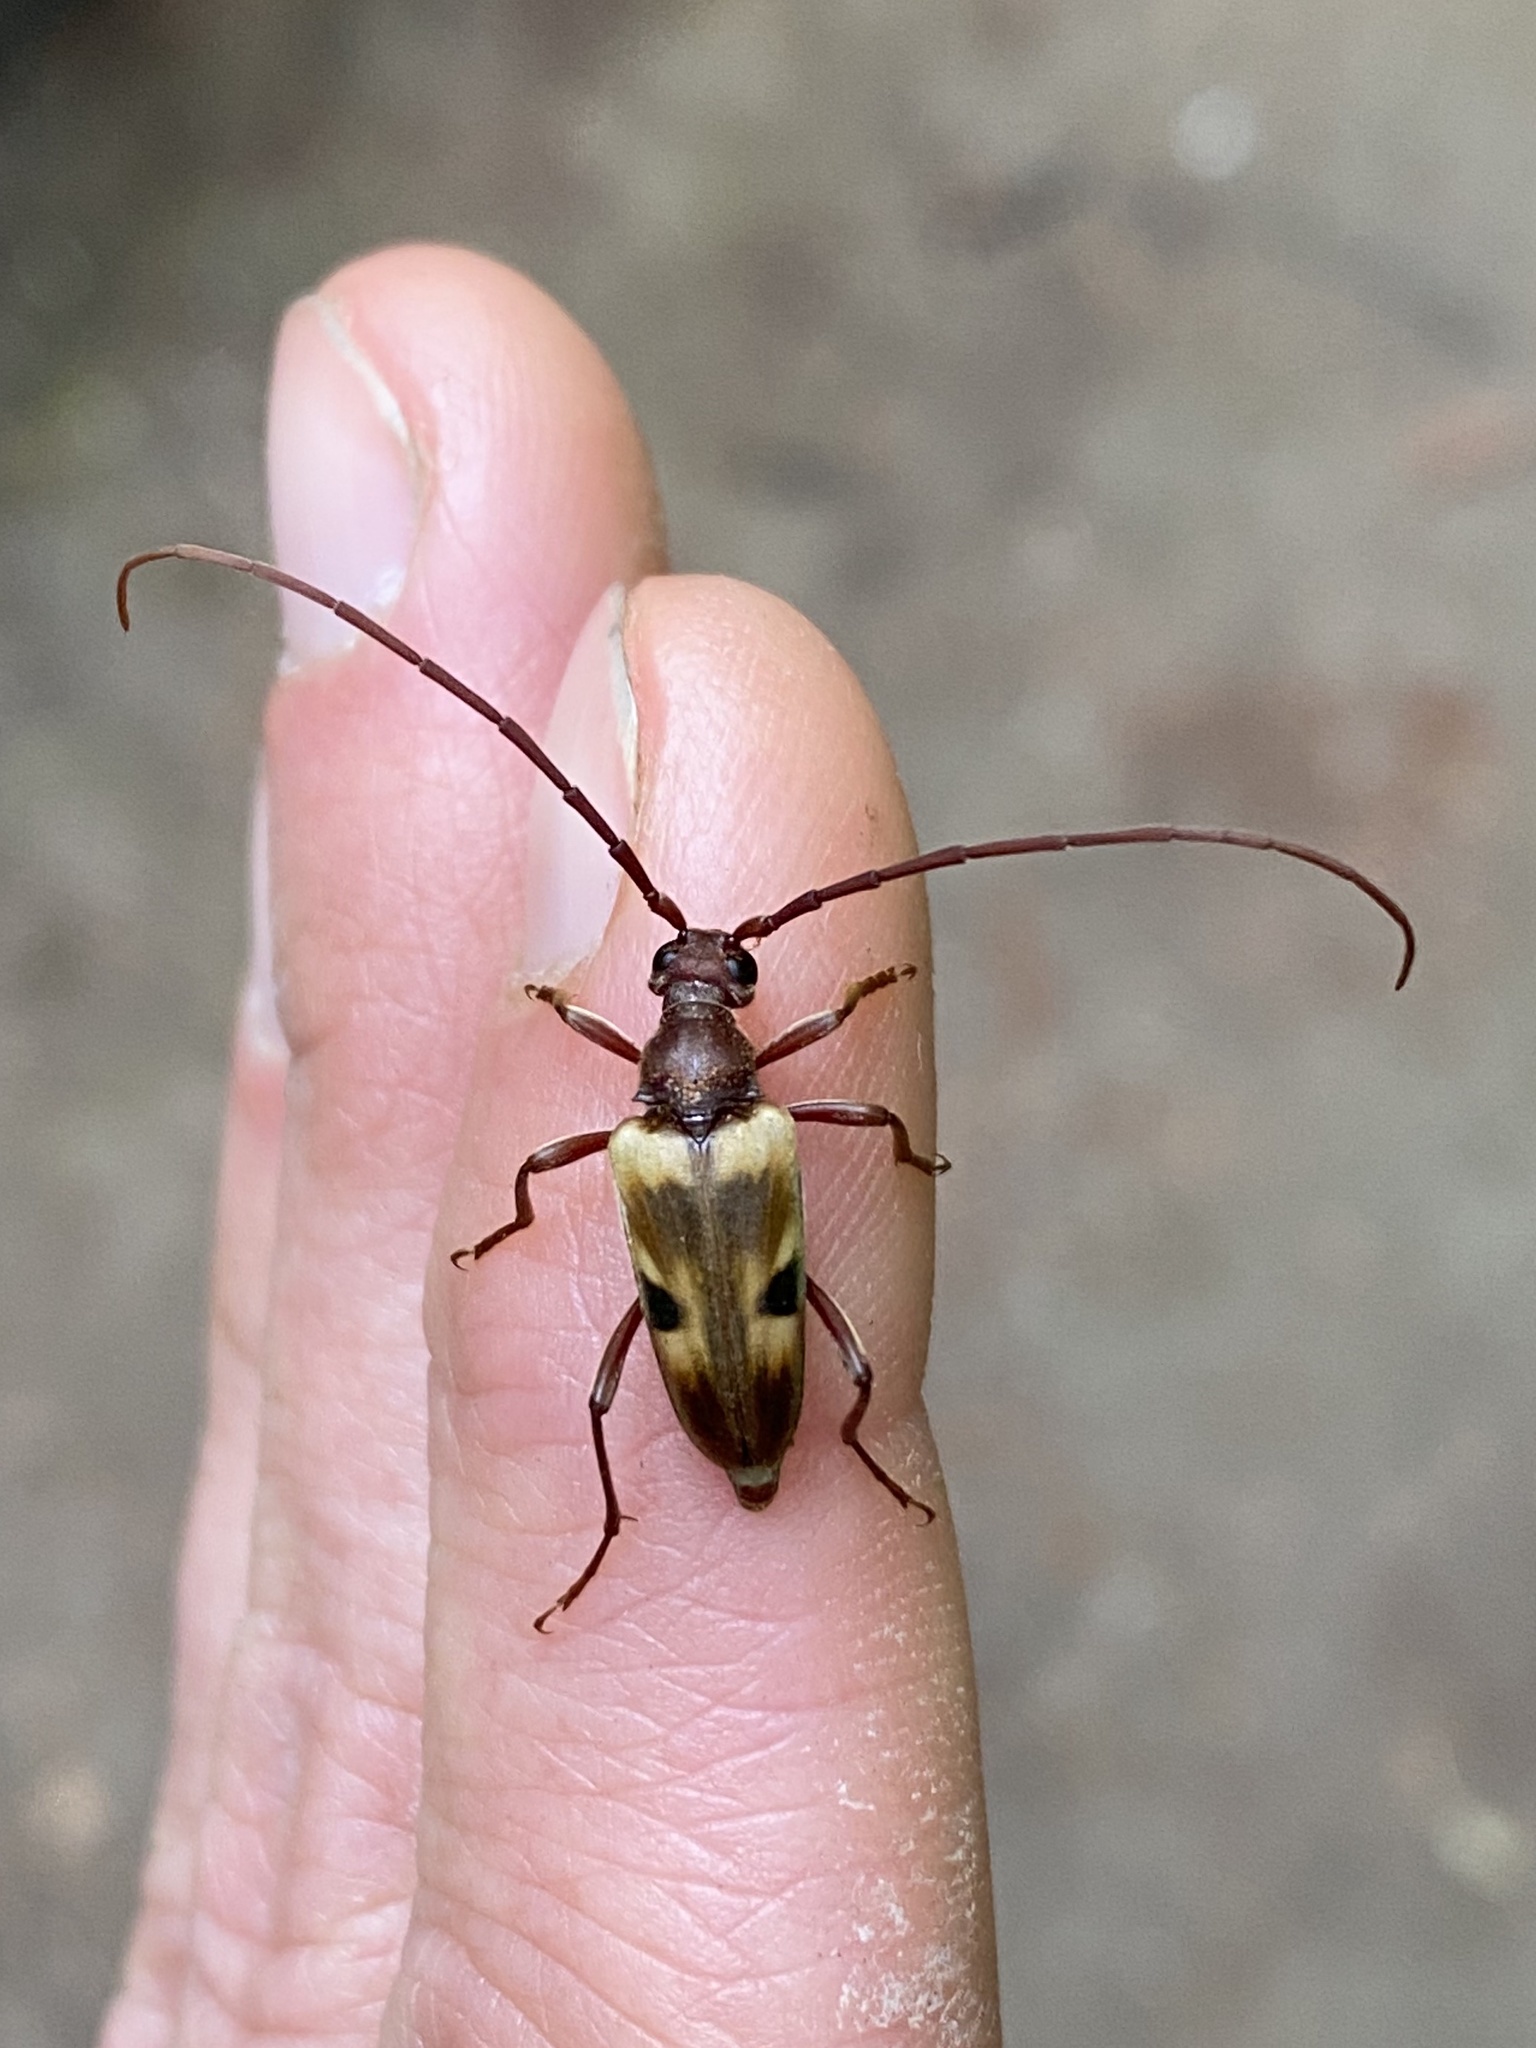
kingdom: Animalia
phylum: Arthropoda
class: Insecta
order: Coleoptera
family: Cerambycidae
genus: Dorcasina
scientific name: Dorcasina matthewsii
